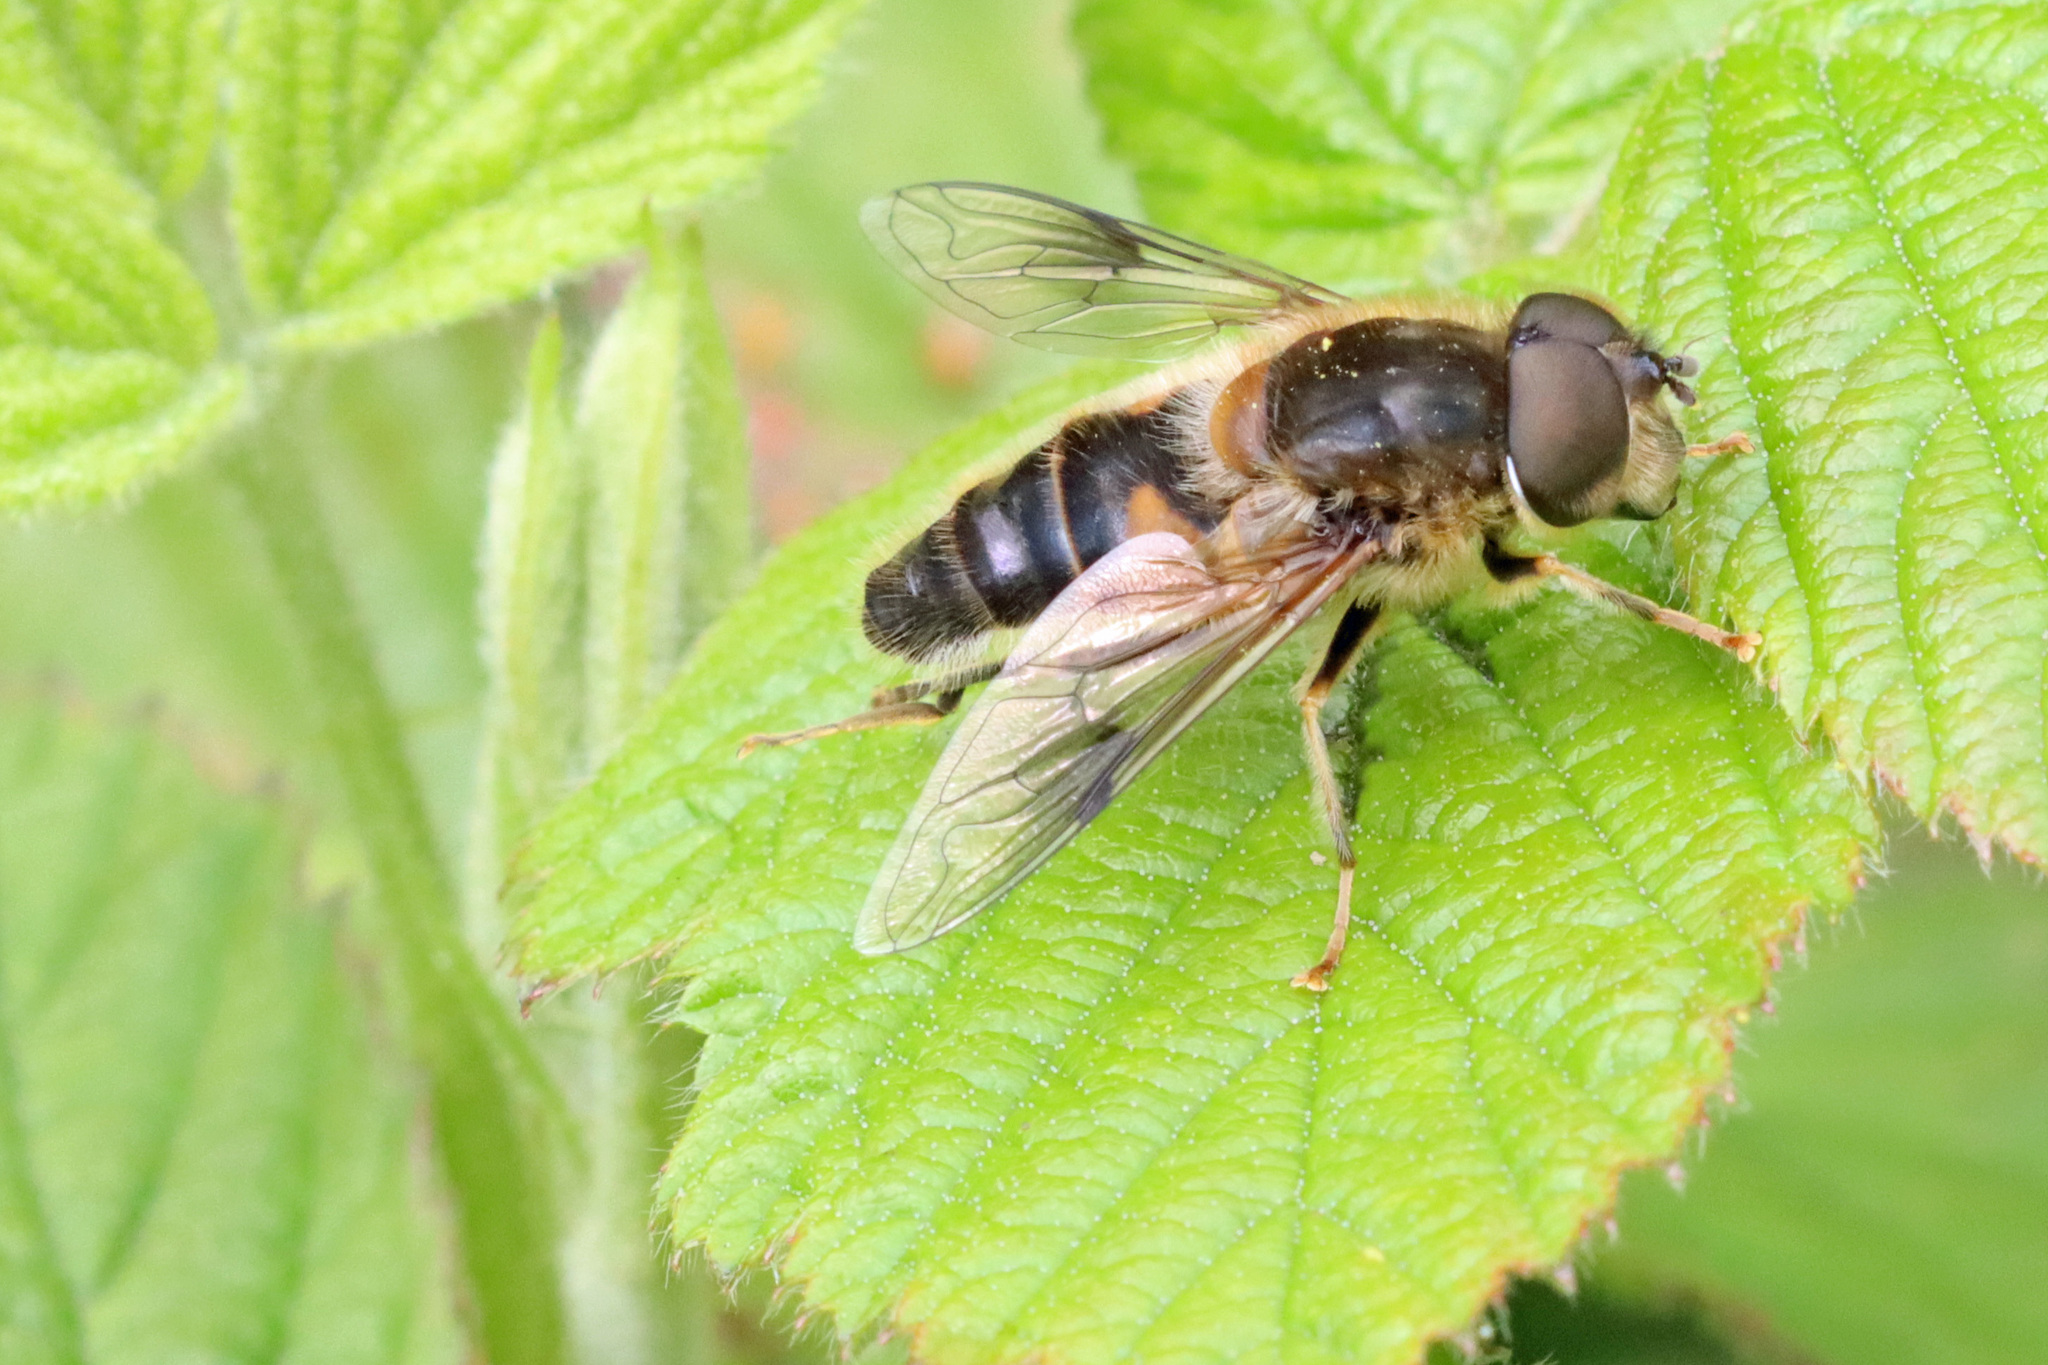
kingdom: Animalia
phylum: Arthropoda
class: Insecta
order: Diptera
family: Syrphidae
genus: Eristalis
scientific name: Eristalis pertinax
